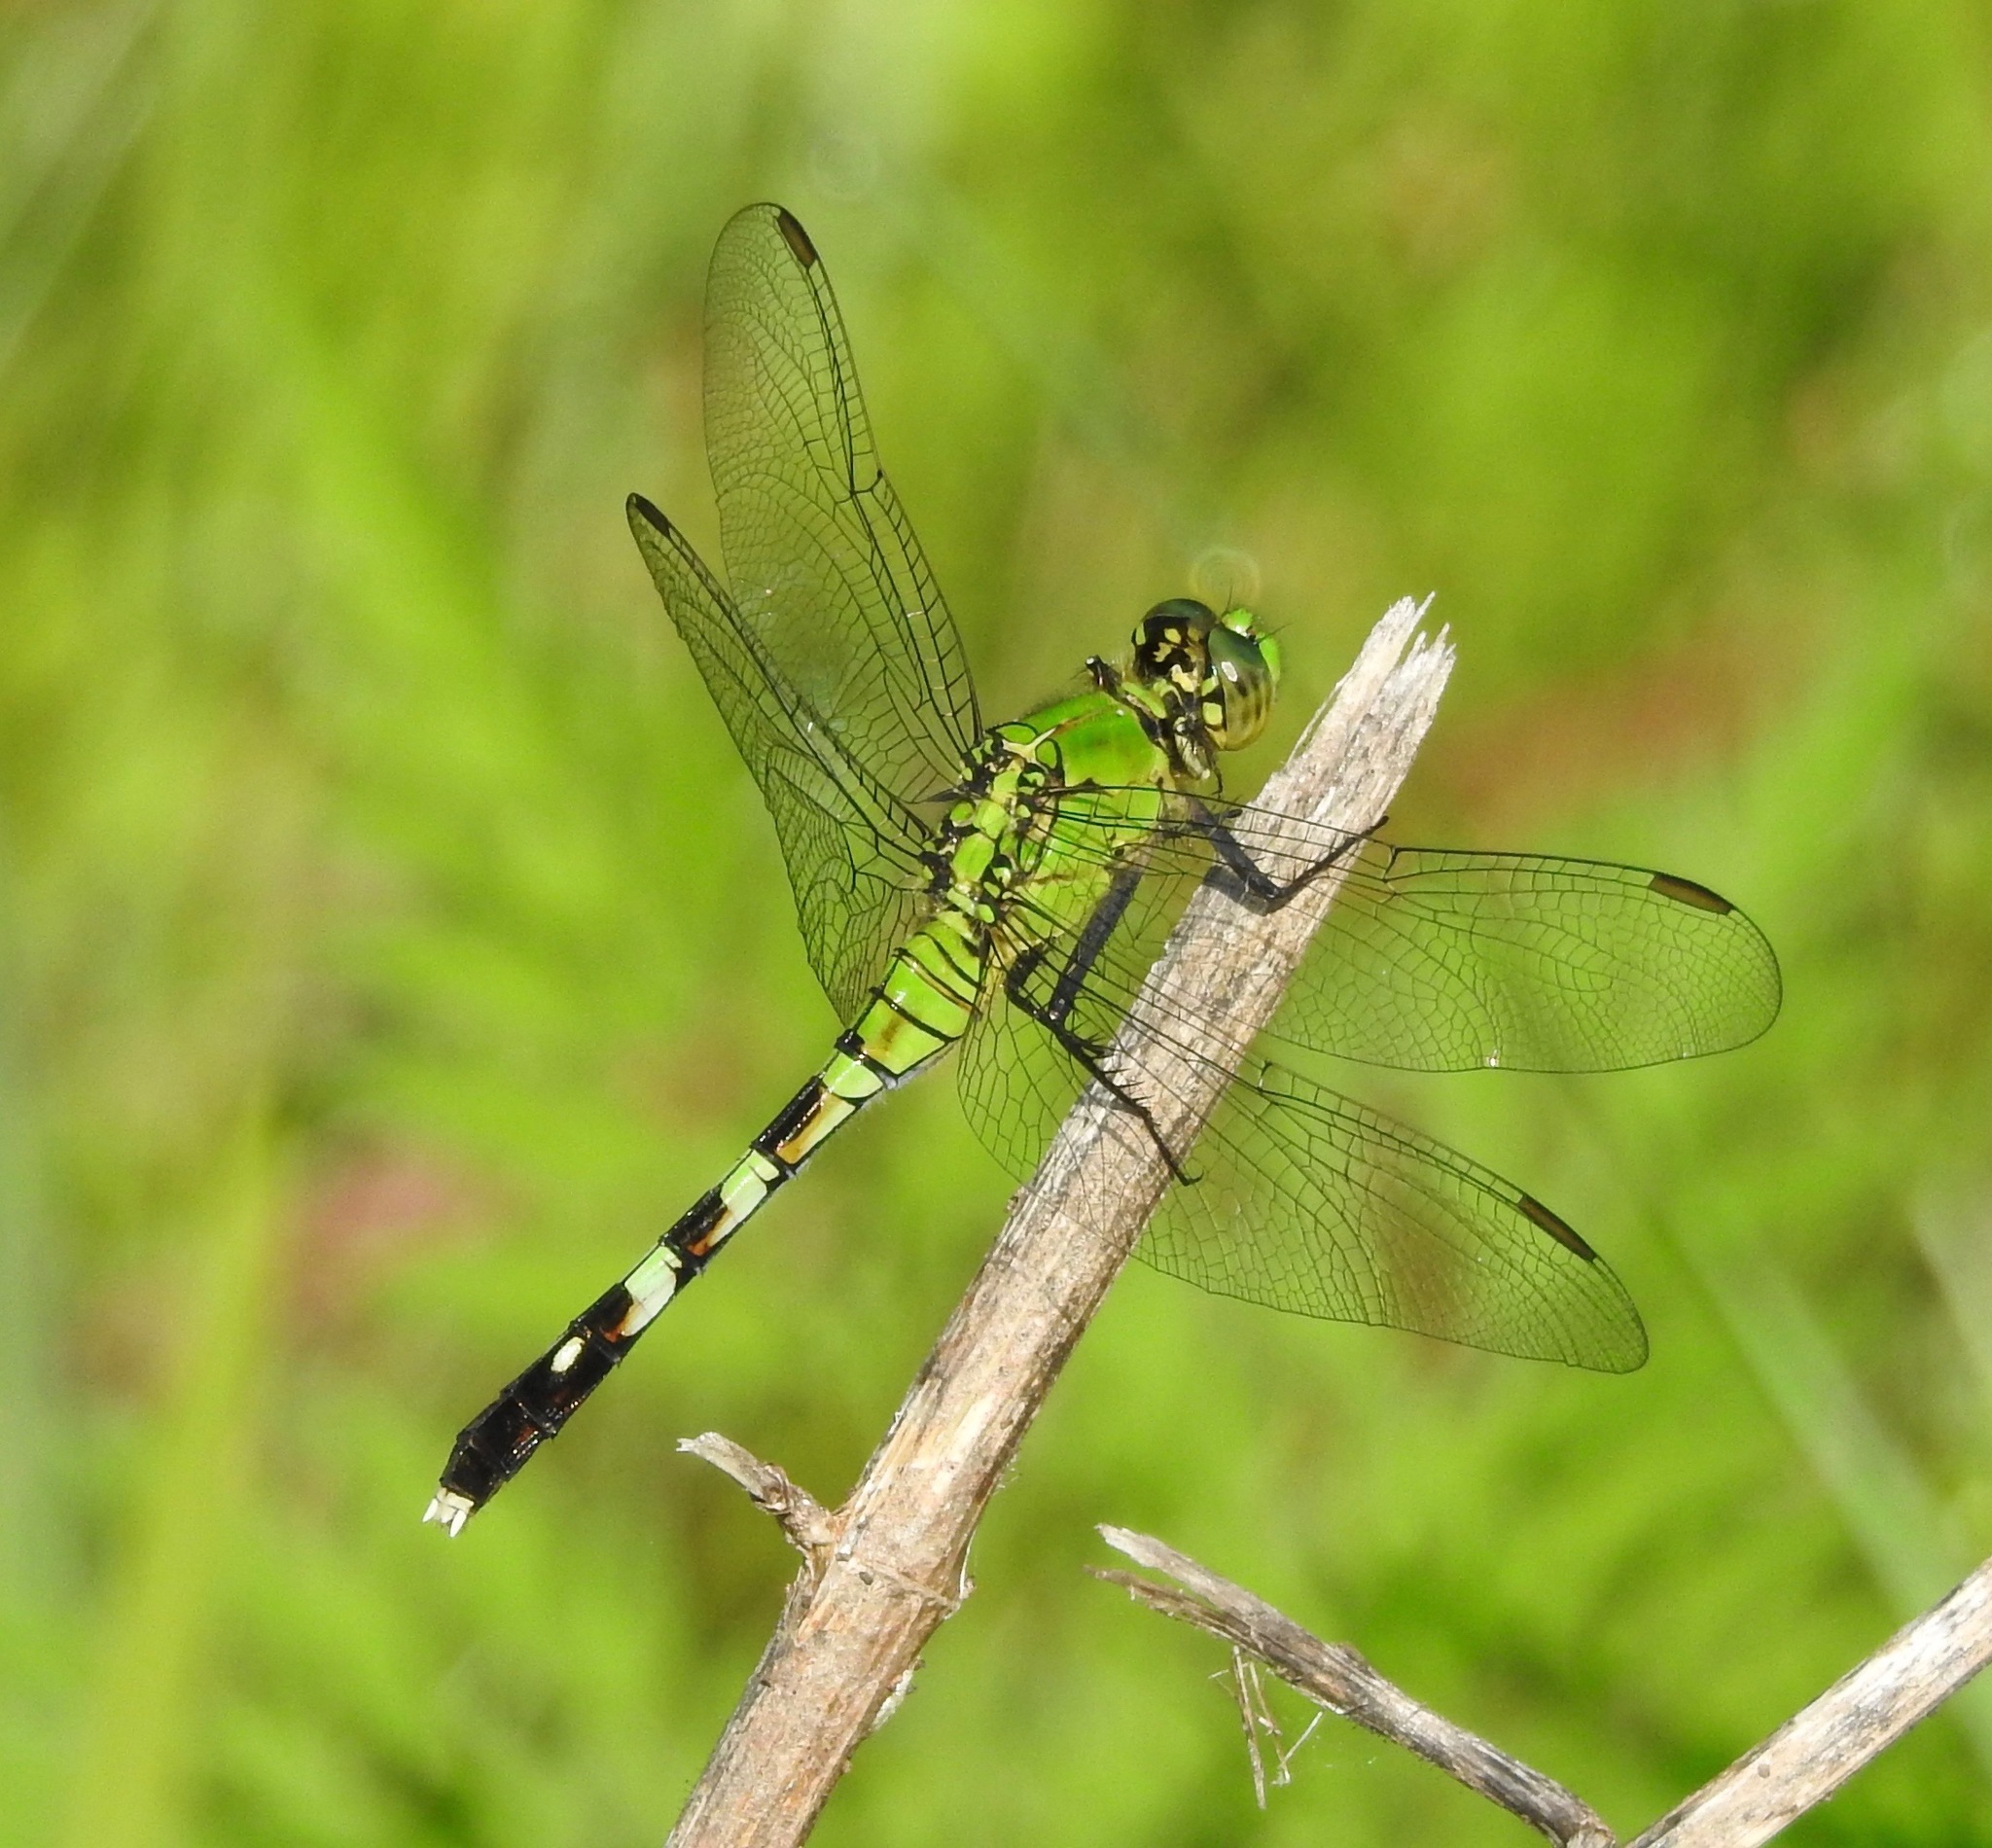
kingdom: Animalia
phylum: Arthropoda
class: Insecta
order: Odonata
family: Libellulidae
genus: Erythemis
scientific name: Erythemis simplicicollis
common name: Eastern pondhawk
